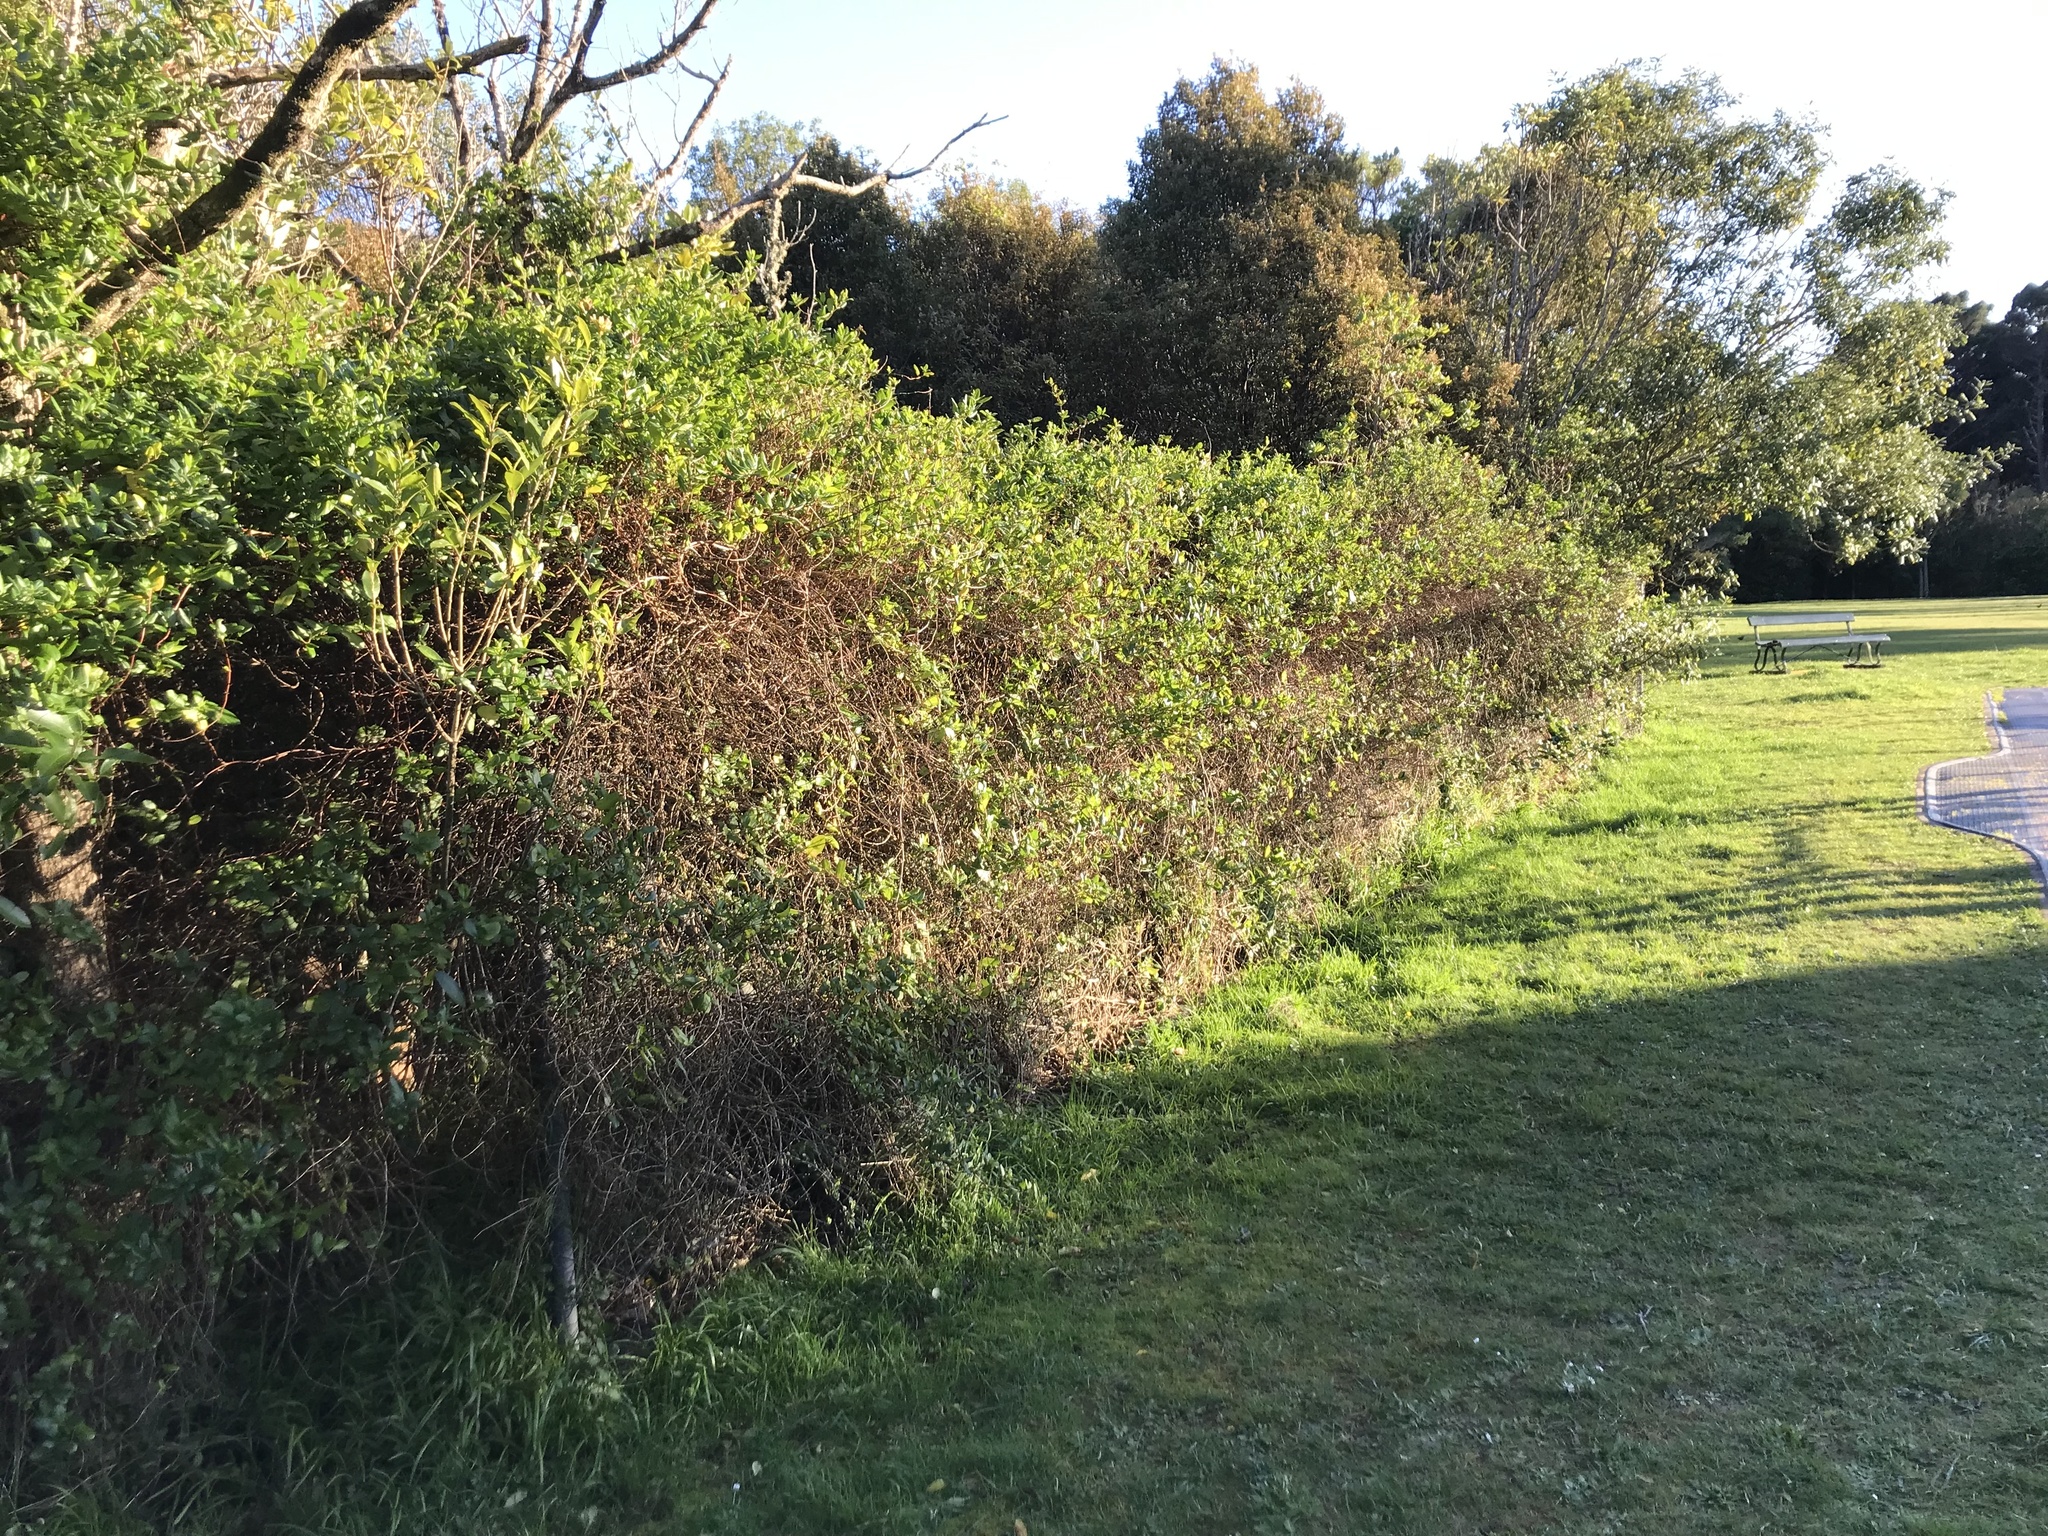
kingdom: Plantae
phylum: Tracheophyta
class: Magnoliopsida
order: Dipsacales
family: Caprifoliaceae
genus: Lonicera
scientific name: Lonicera japonica
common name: Japanese honeysuckle
